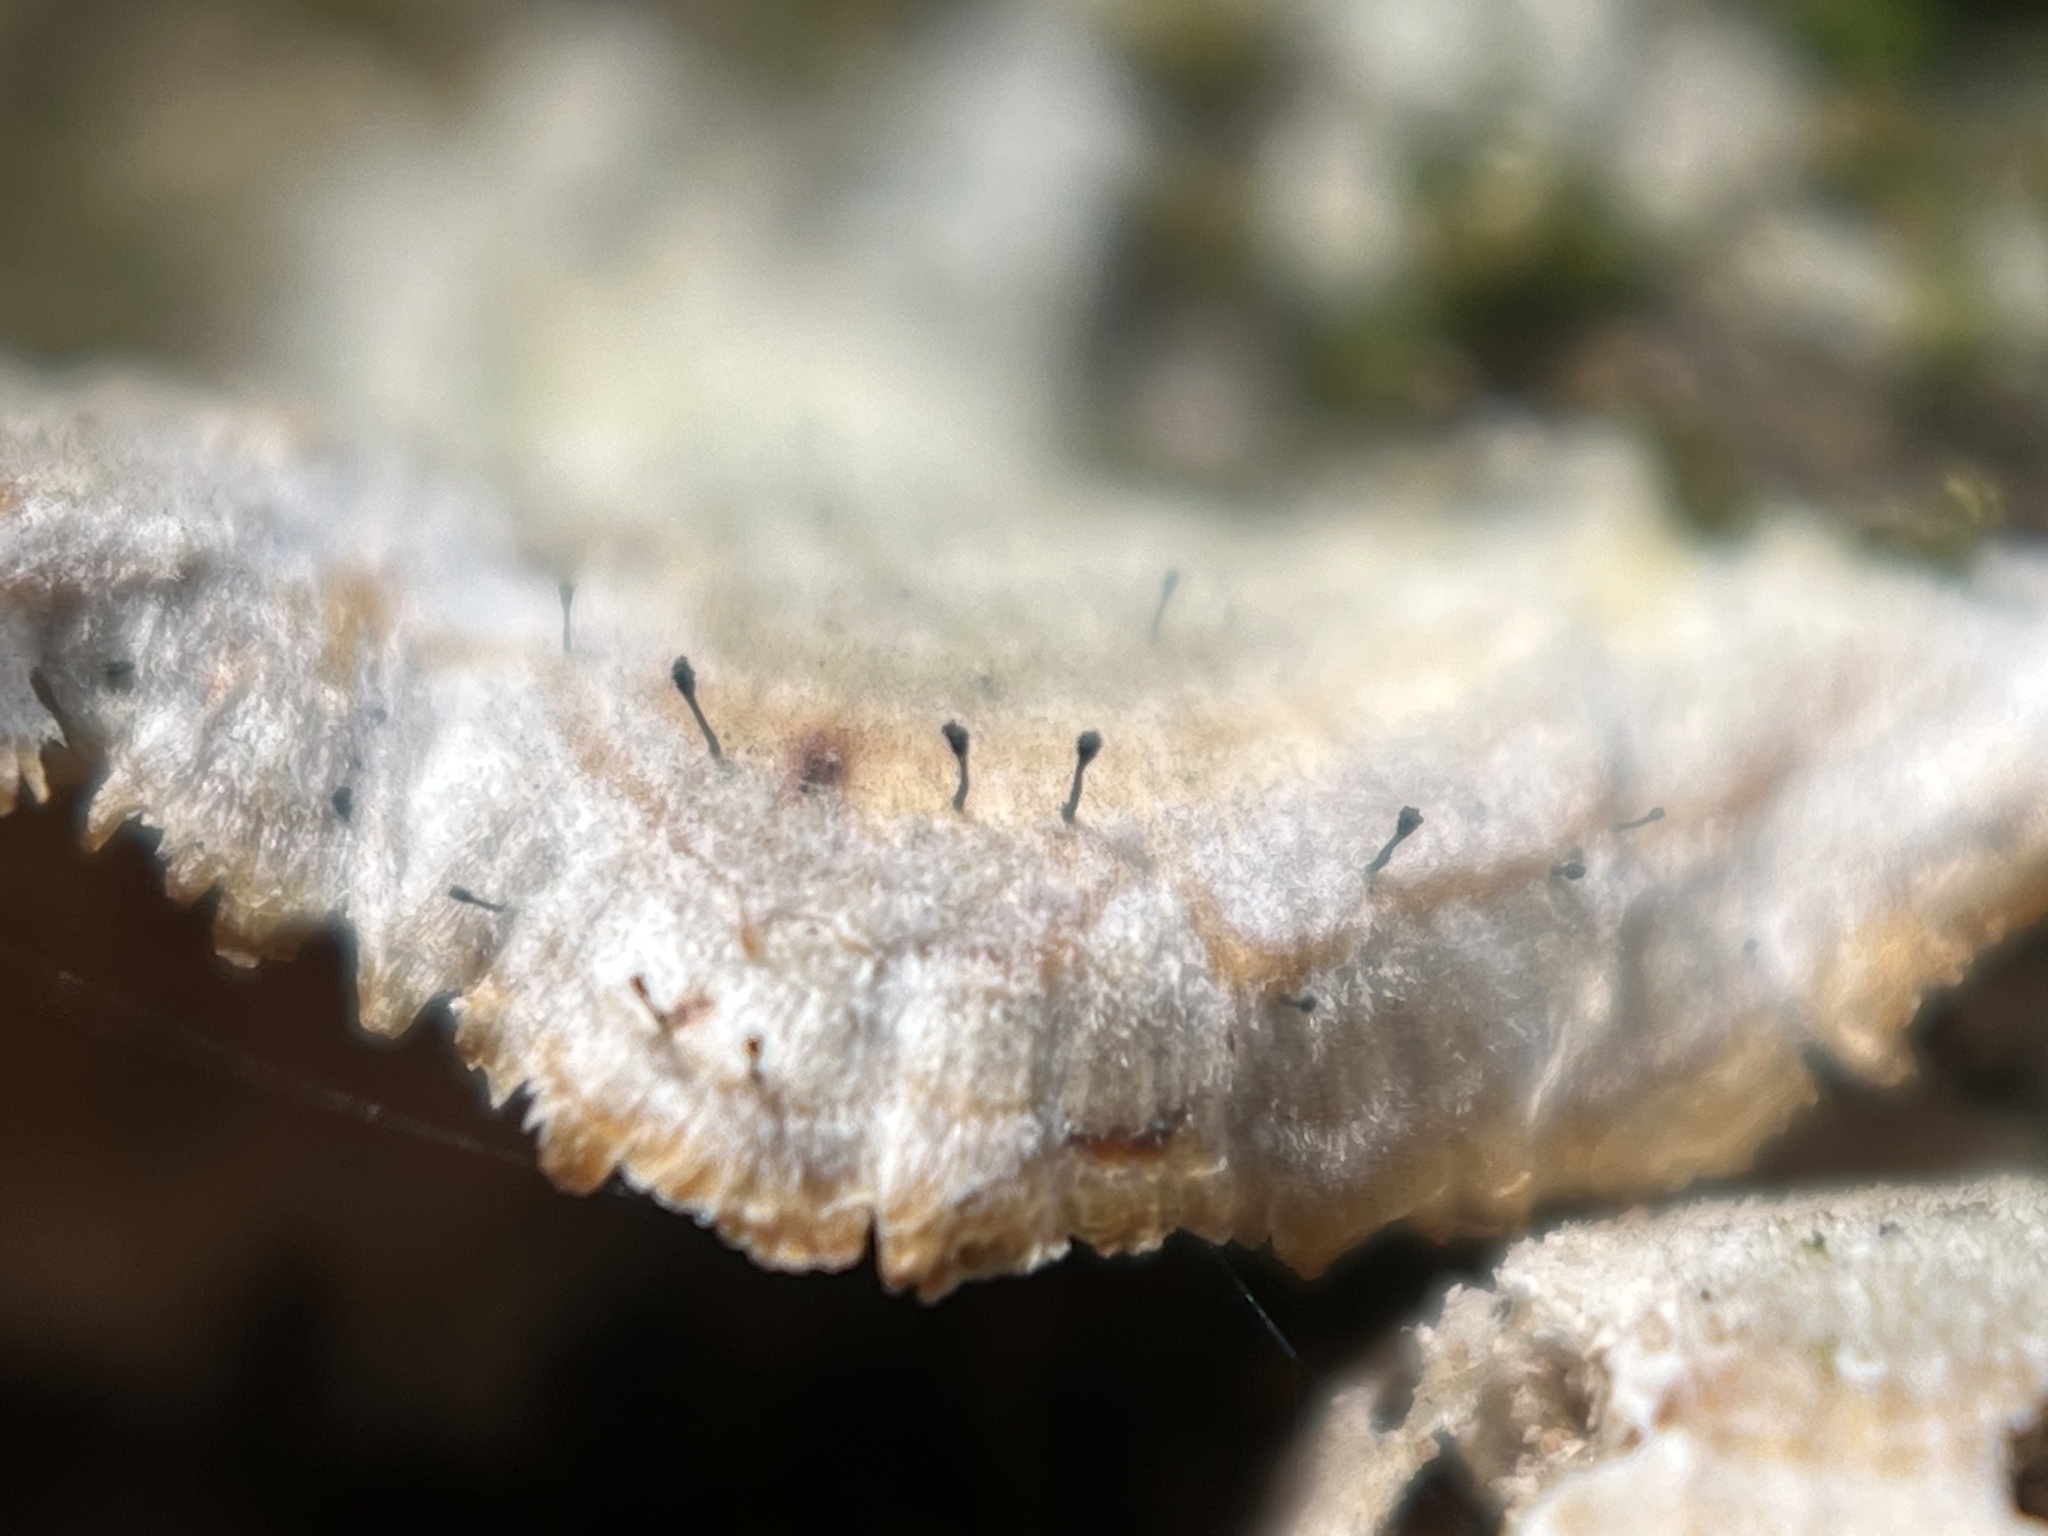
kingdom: Fungi
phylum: Ascomycota
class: Eurotiomycetes
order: Mycocaliciales
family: Mycocaliciaceae
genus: Phaeocalicium
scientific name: Phaeocalicium polyporaeum
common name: Fairy pins
